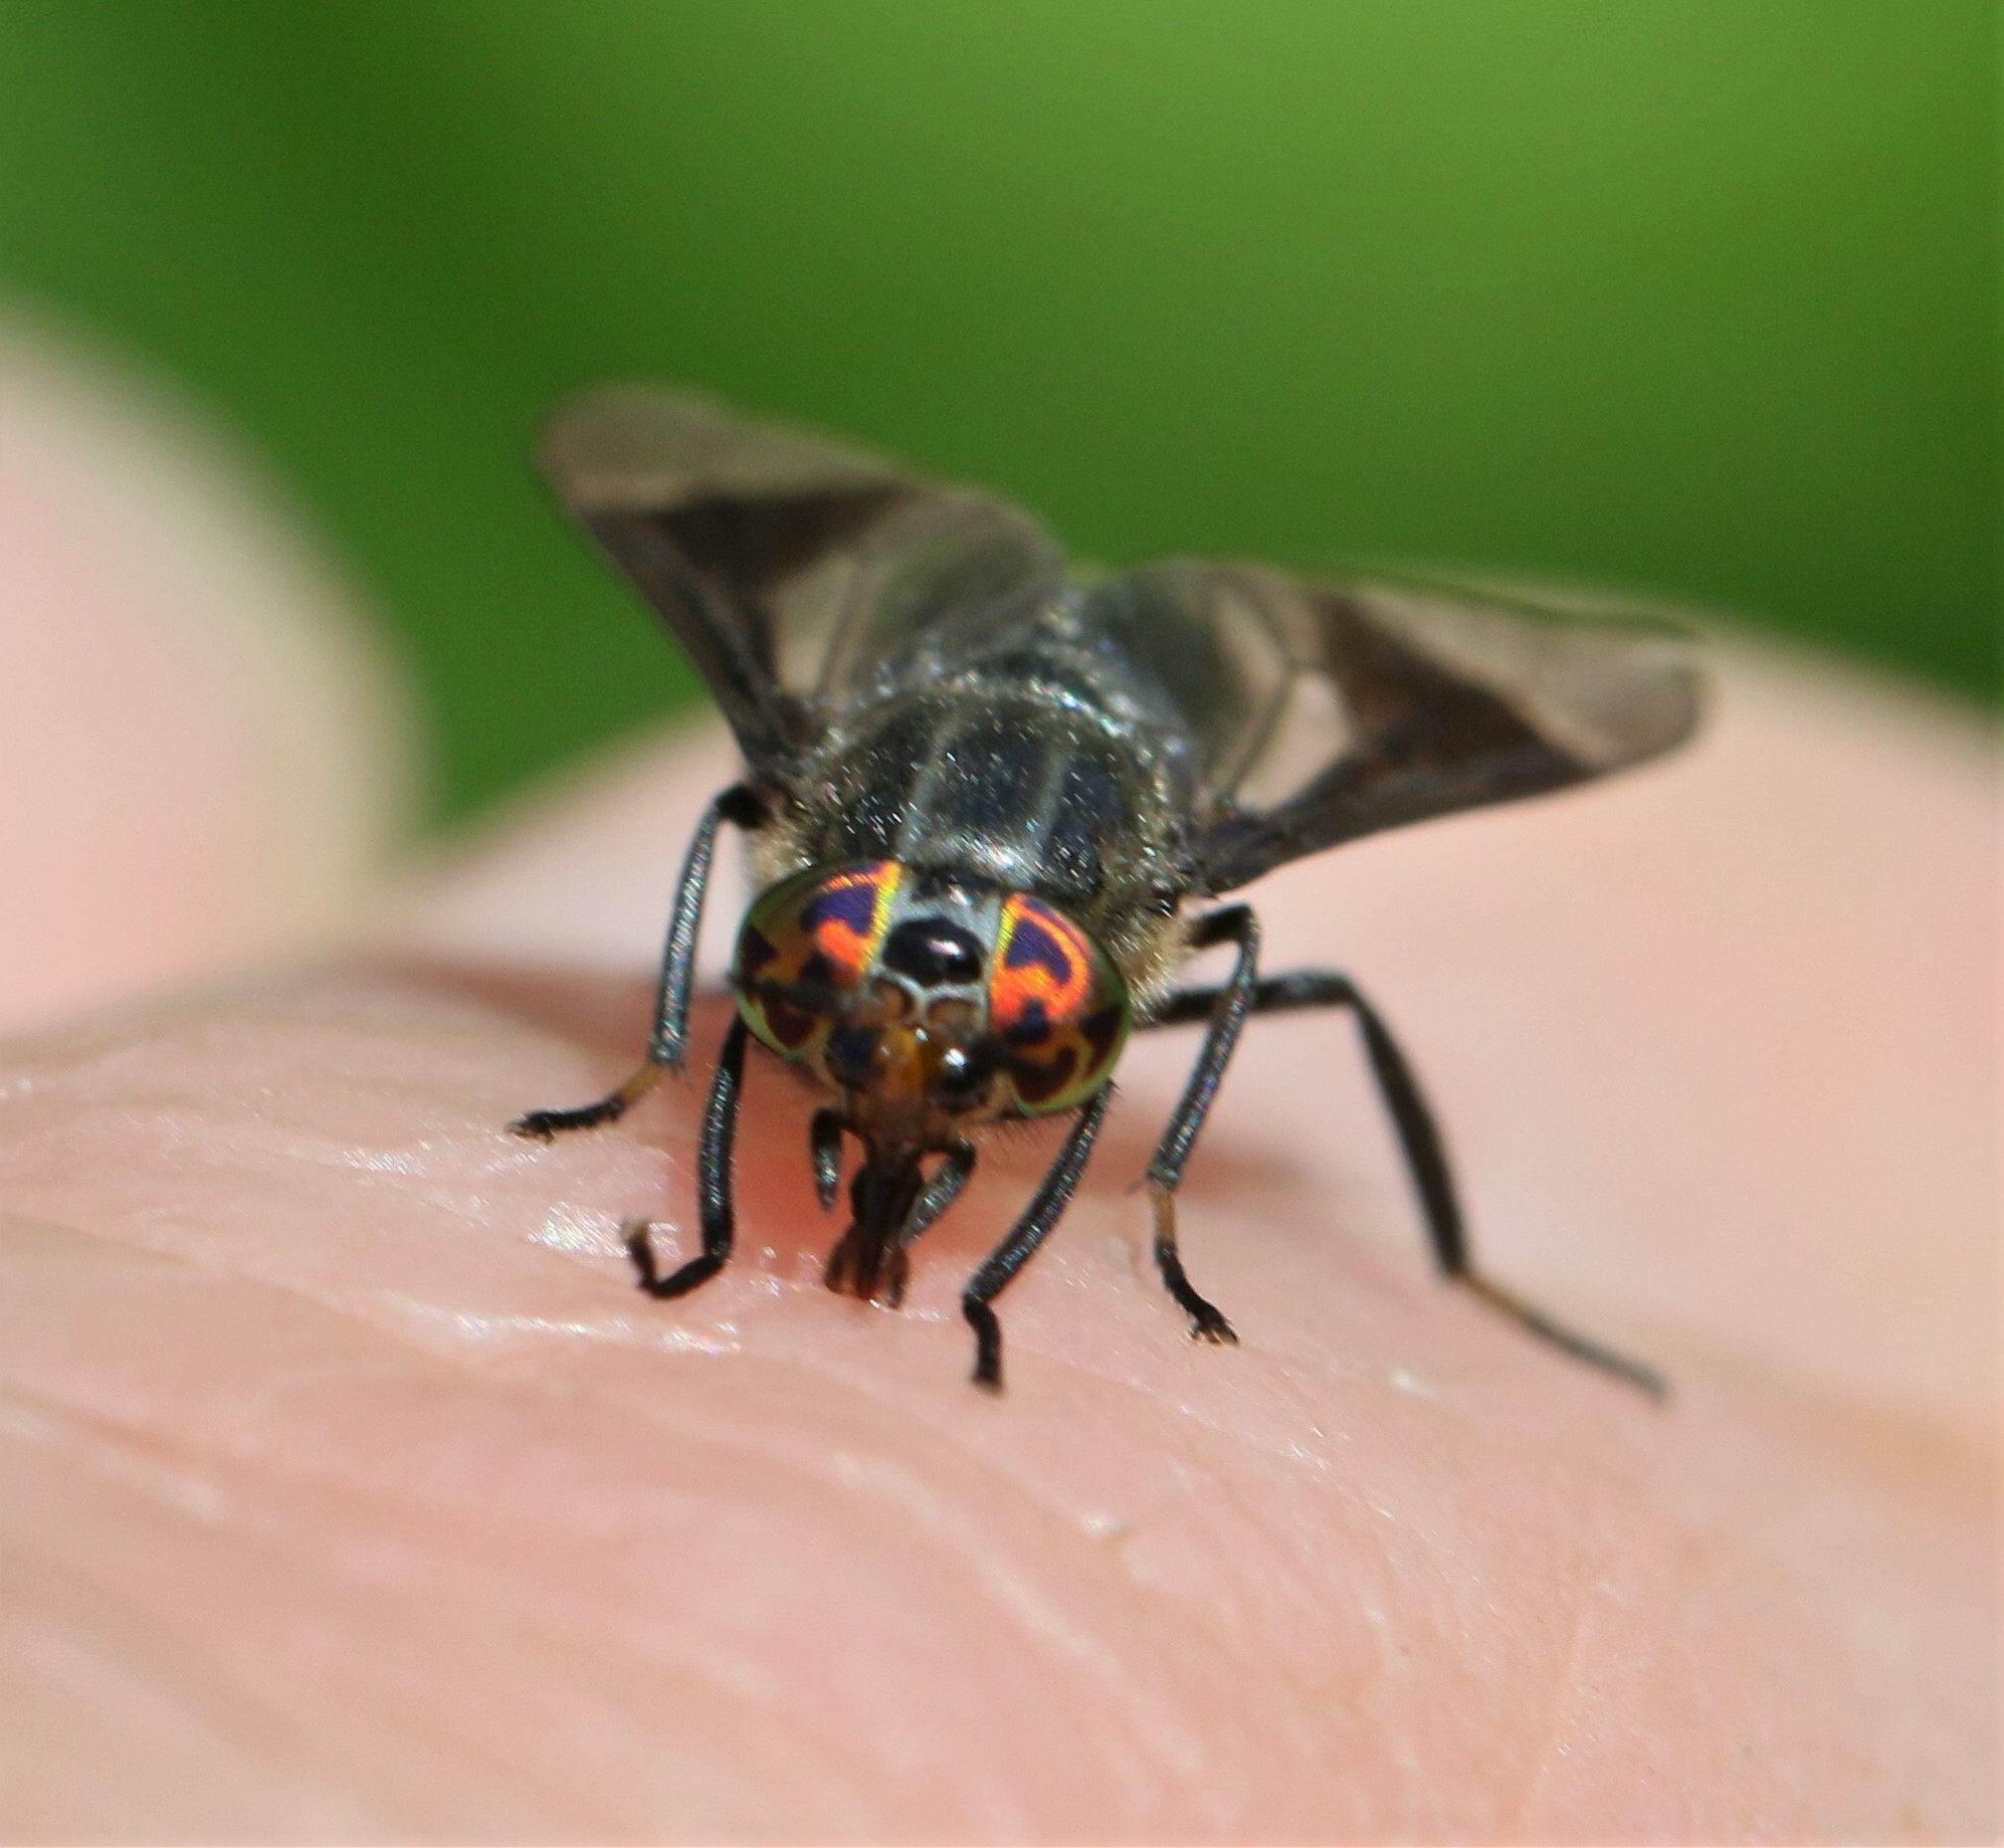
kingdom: Animalia
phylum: Arthropoda
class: Insecta
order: Diptera
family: Tabanidae
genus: Chrysops
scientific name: Chrysops niger
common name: Black deer fly
